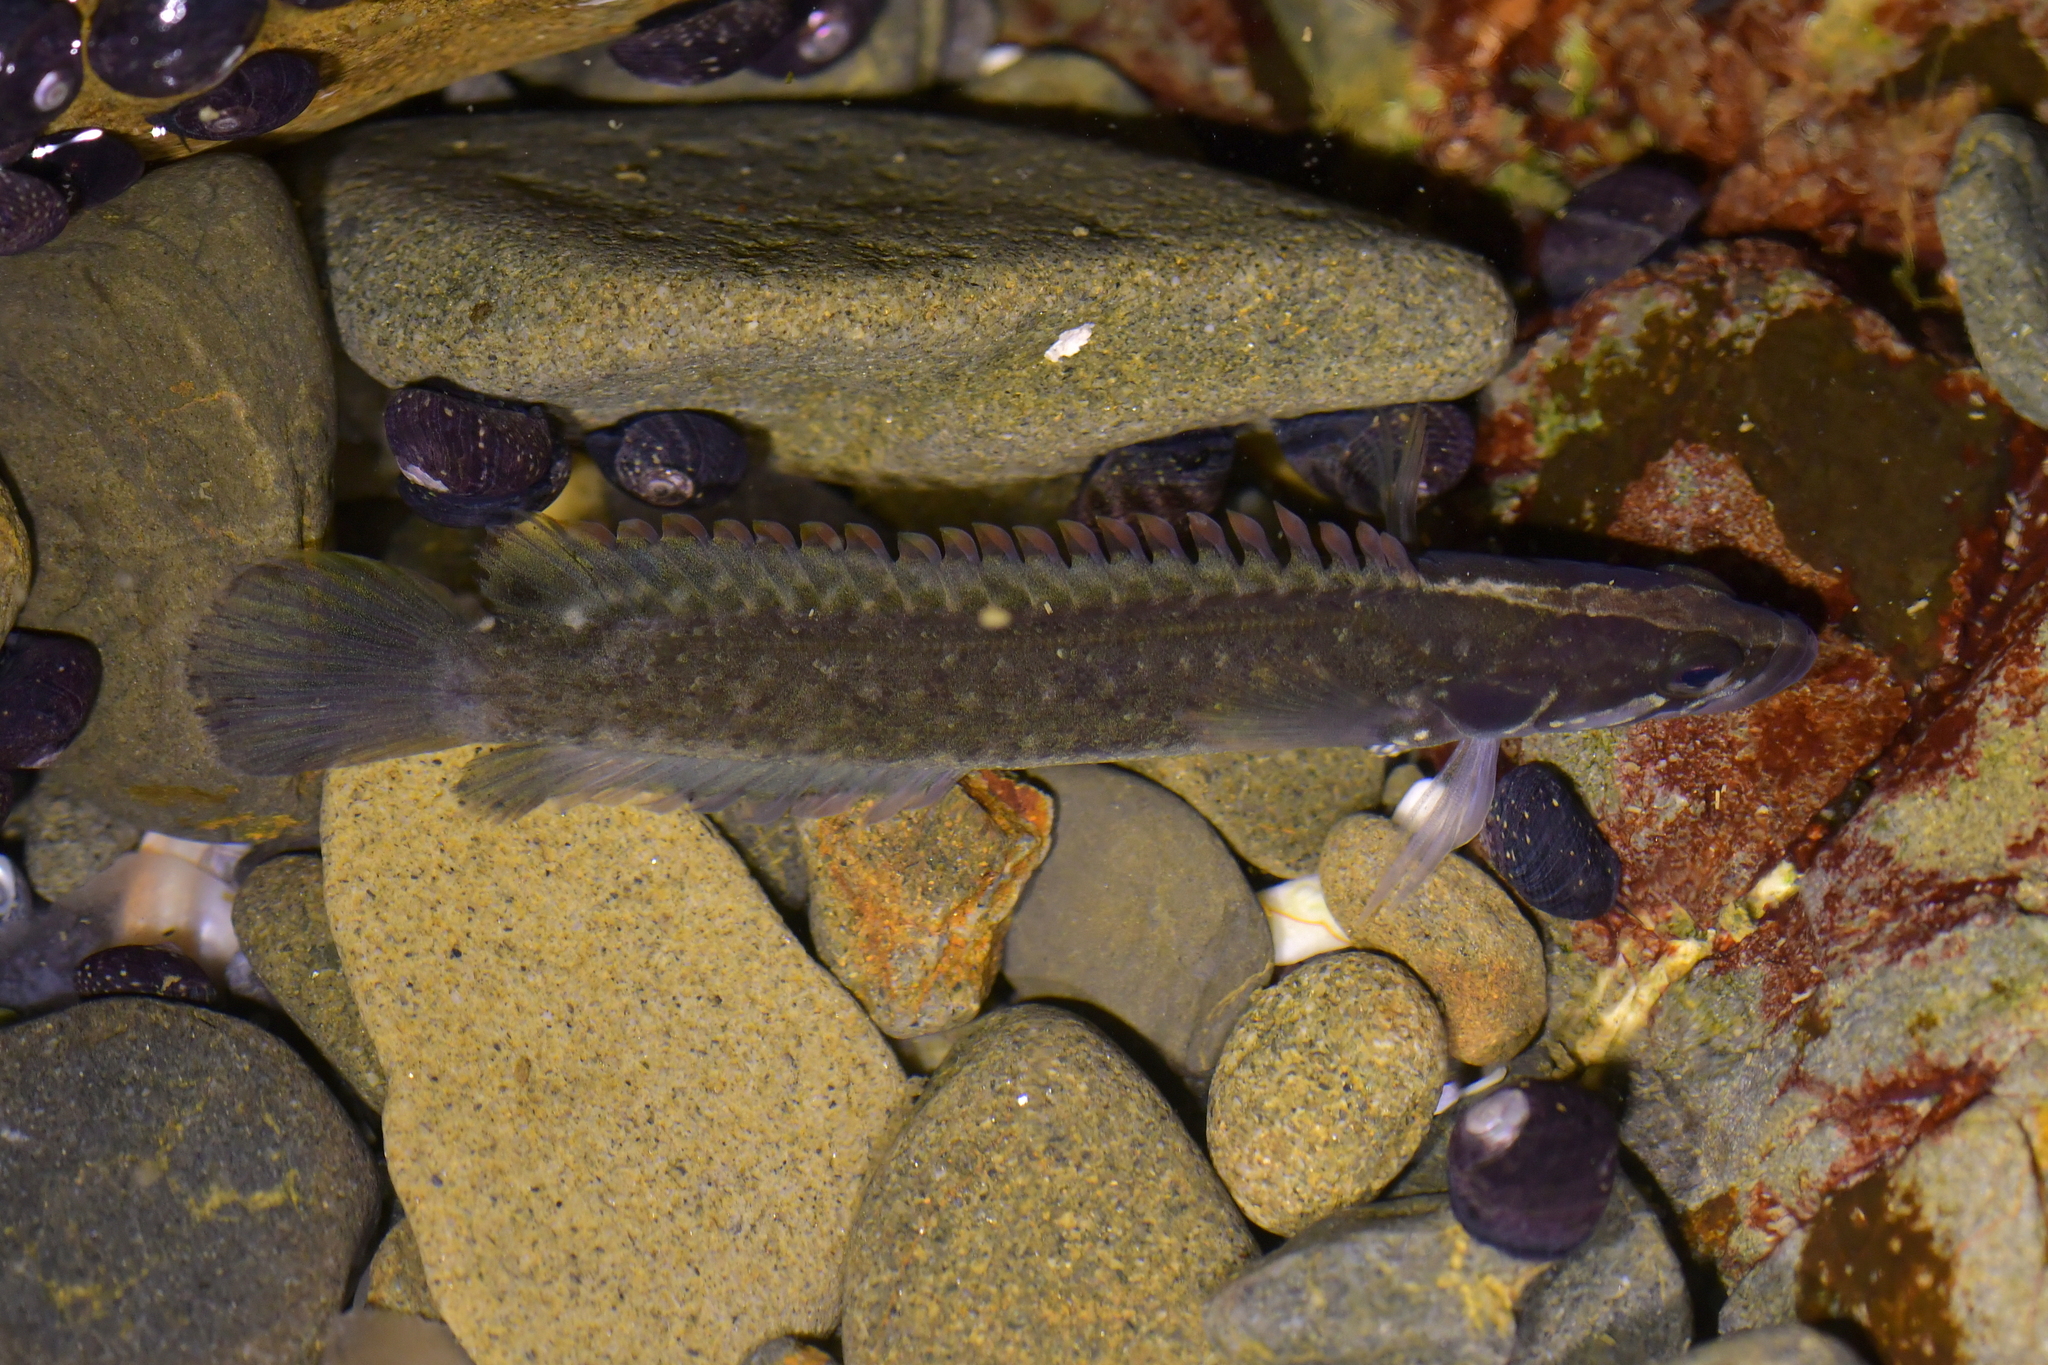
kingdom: Animalia
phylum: Chordata
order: Perciformes
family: Plesiopidae
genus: Acanthoclinus
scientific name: Acanthoclinus fuscus
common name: Olive rockfish
